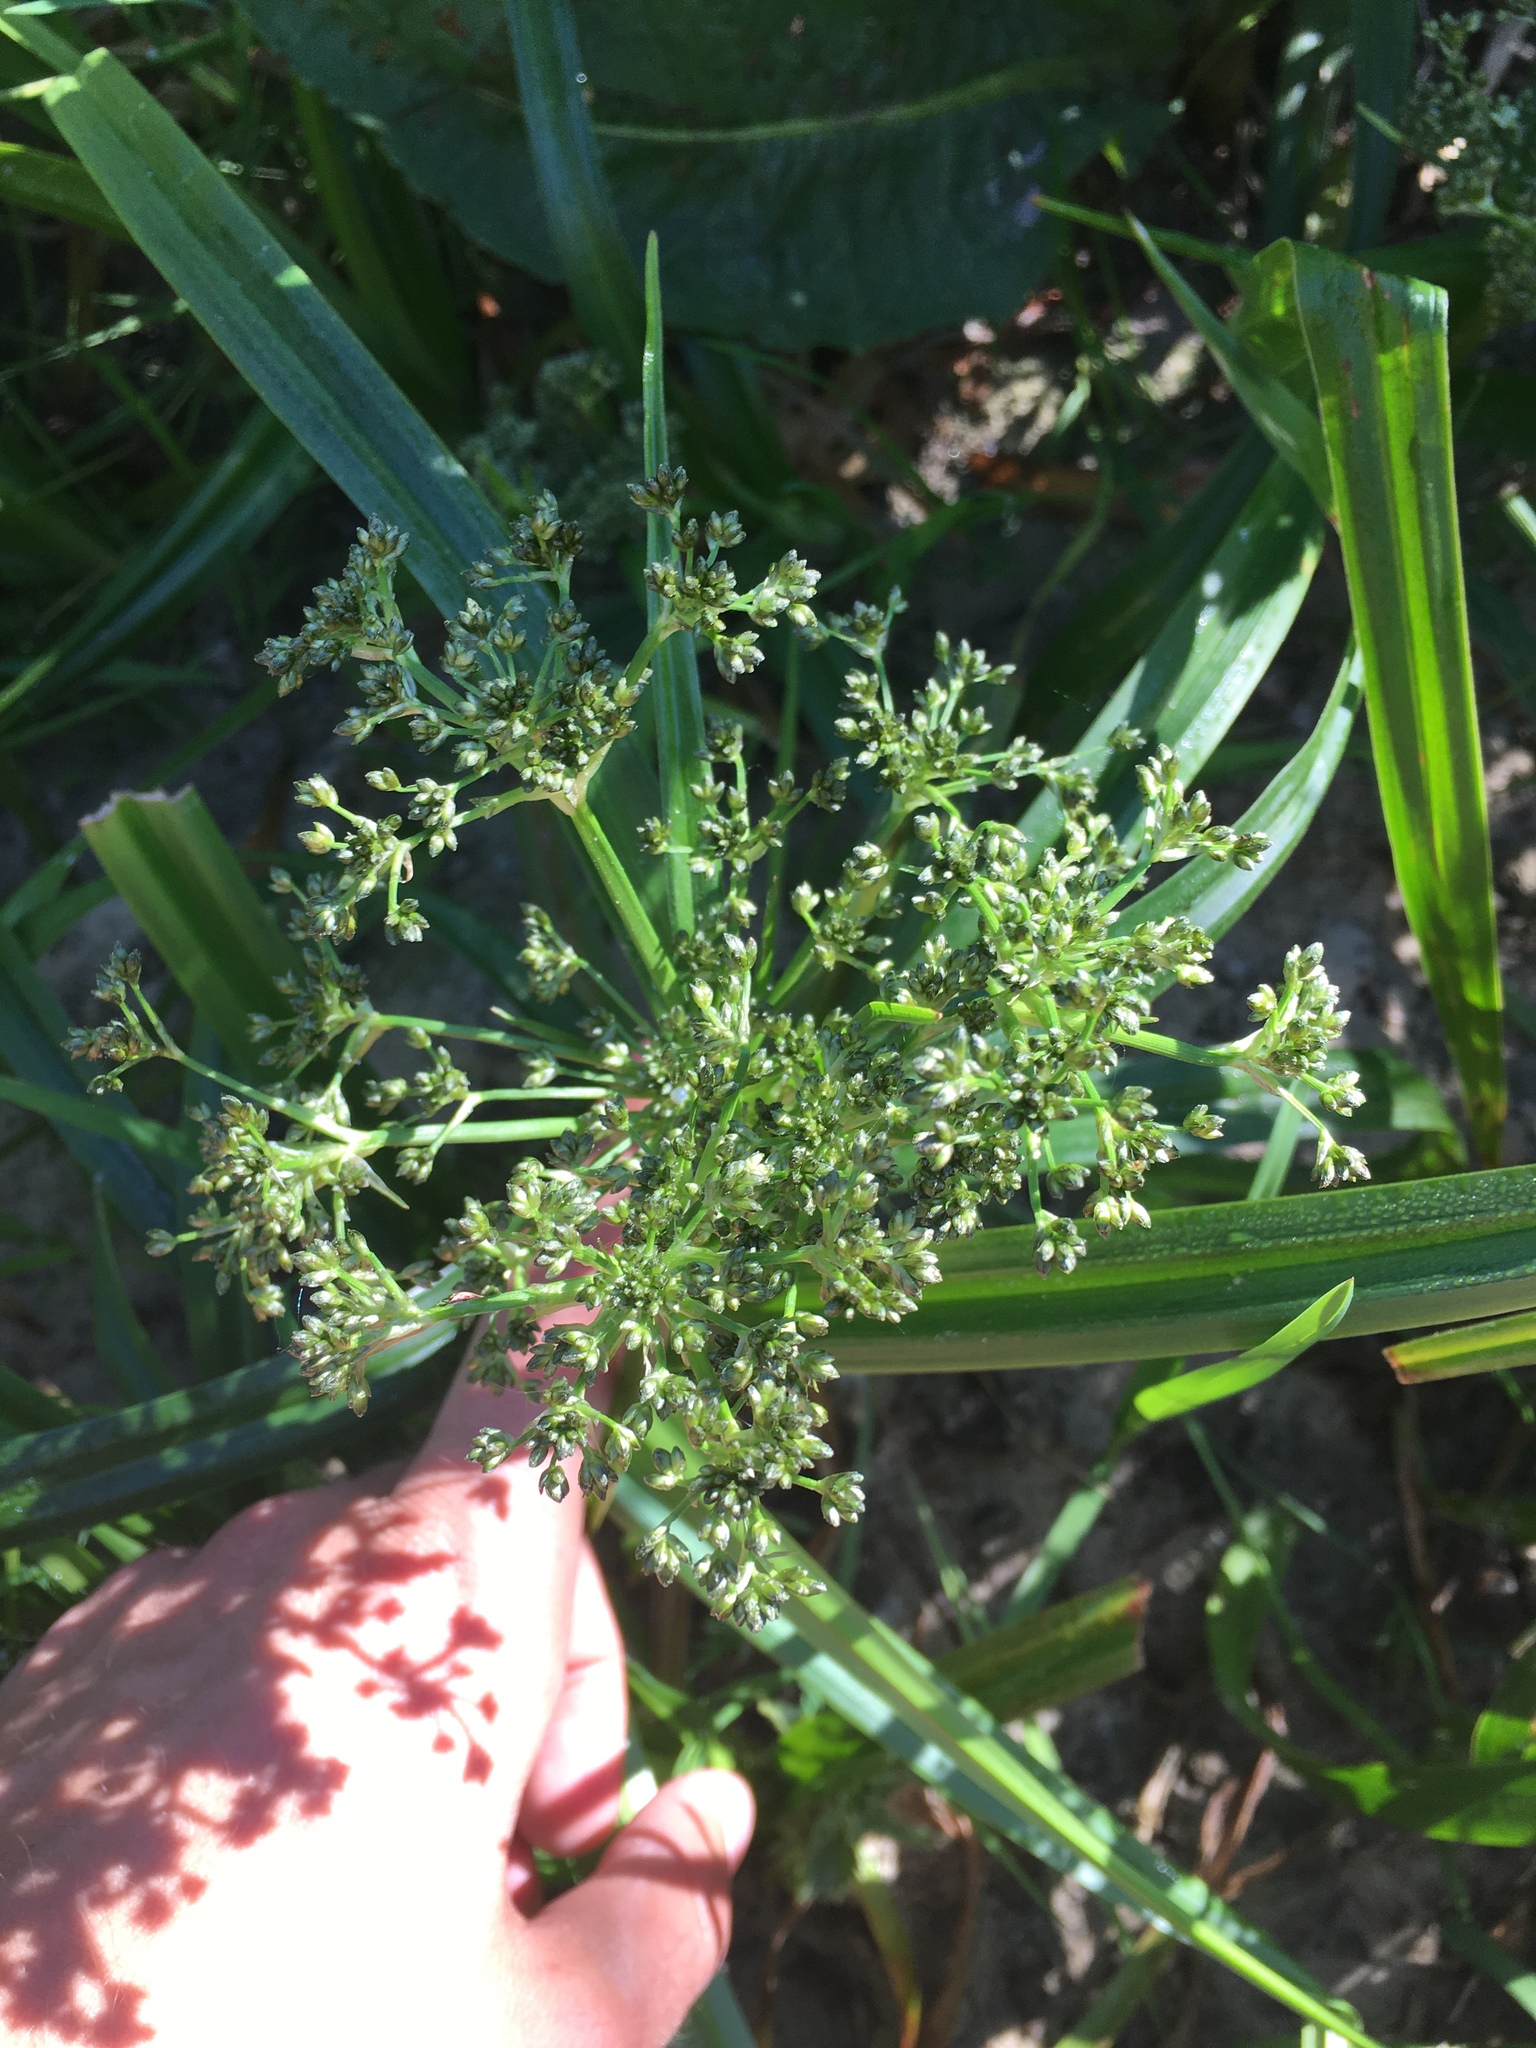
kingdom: Plantae
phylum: Tracheophyta
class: Liliopsida
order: Poales
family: Cyperaceae
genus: Scirpus
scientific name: Scirpus sylvaticus
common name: Wood club-rush
